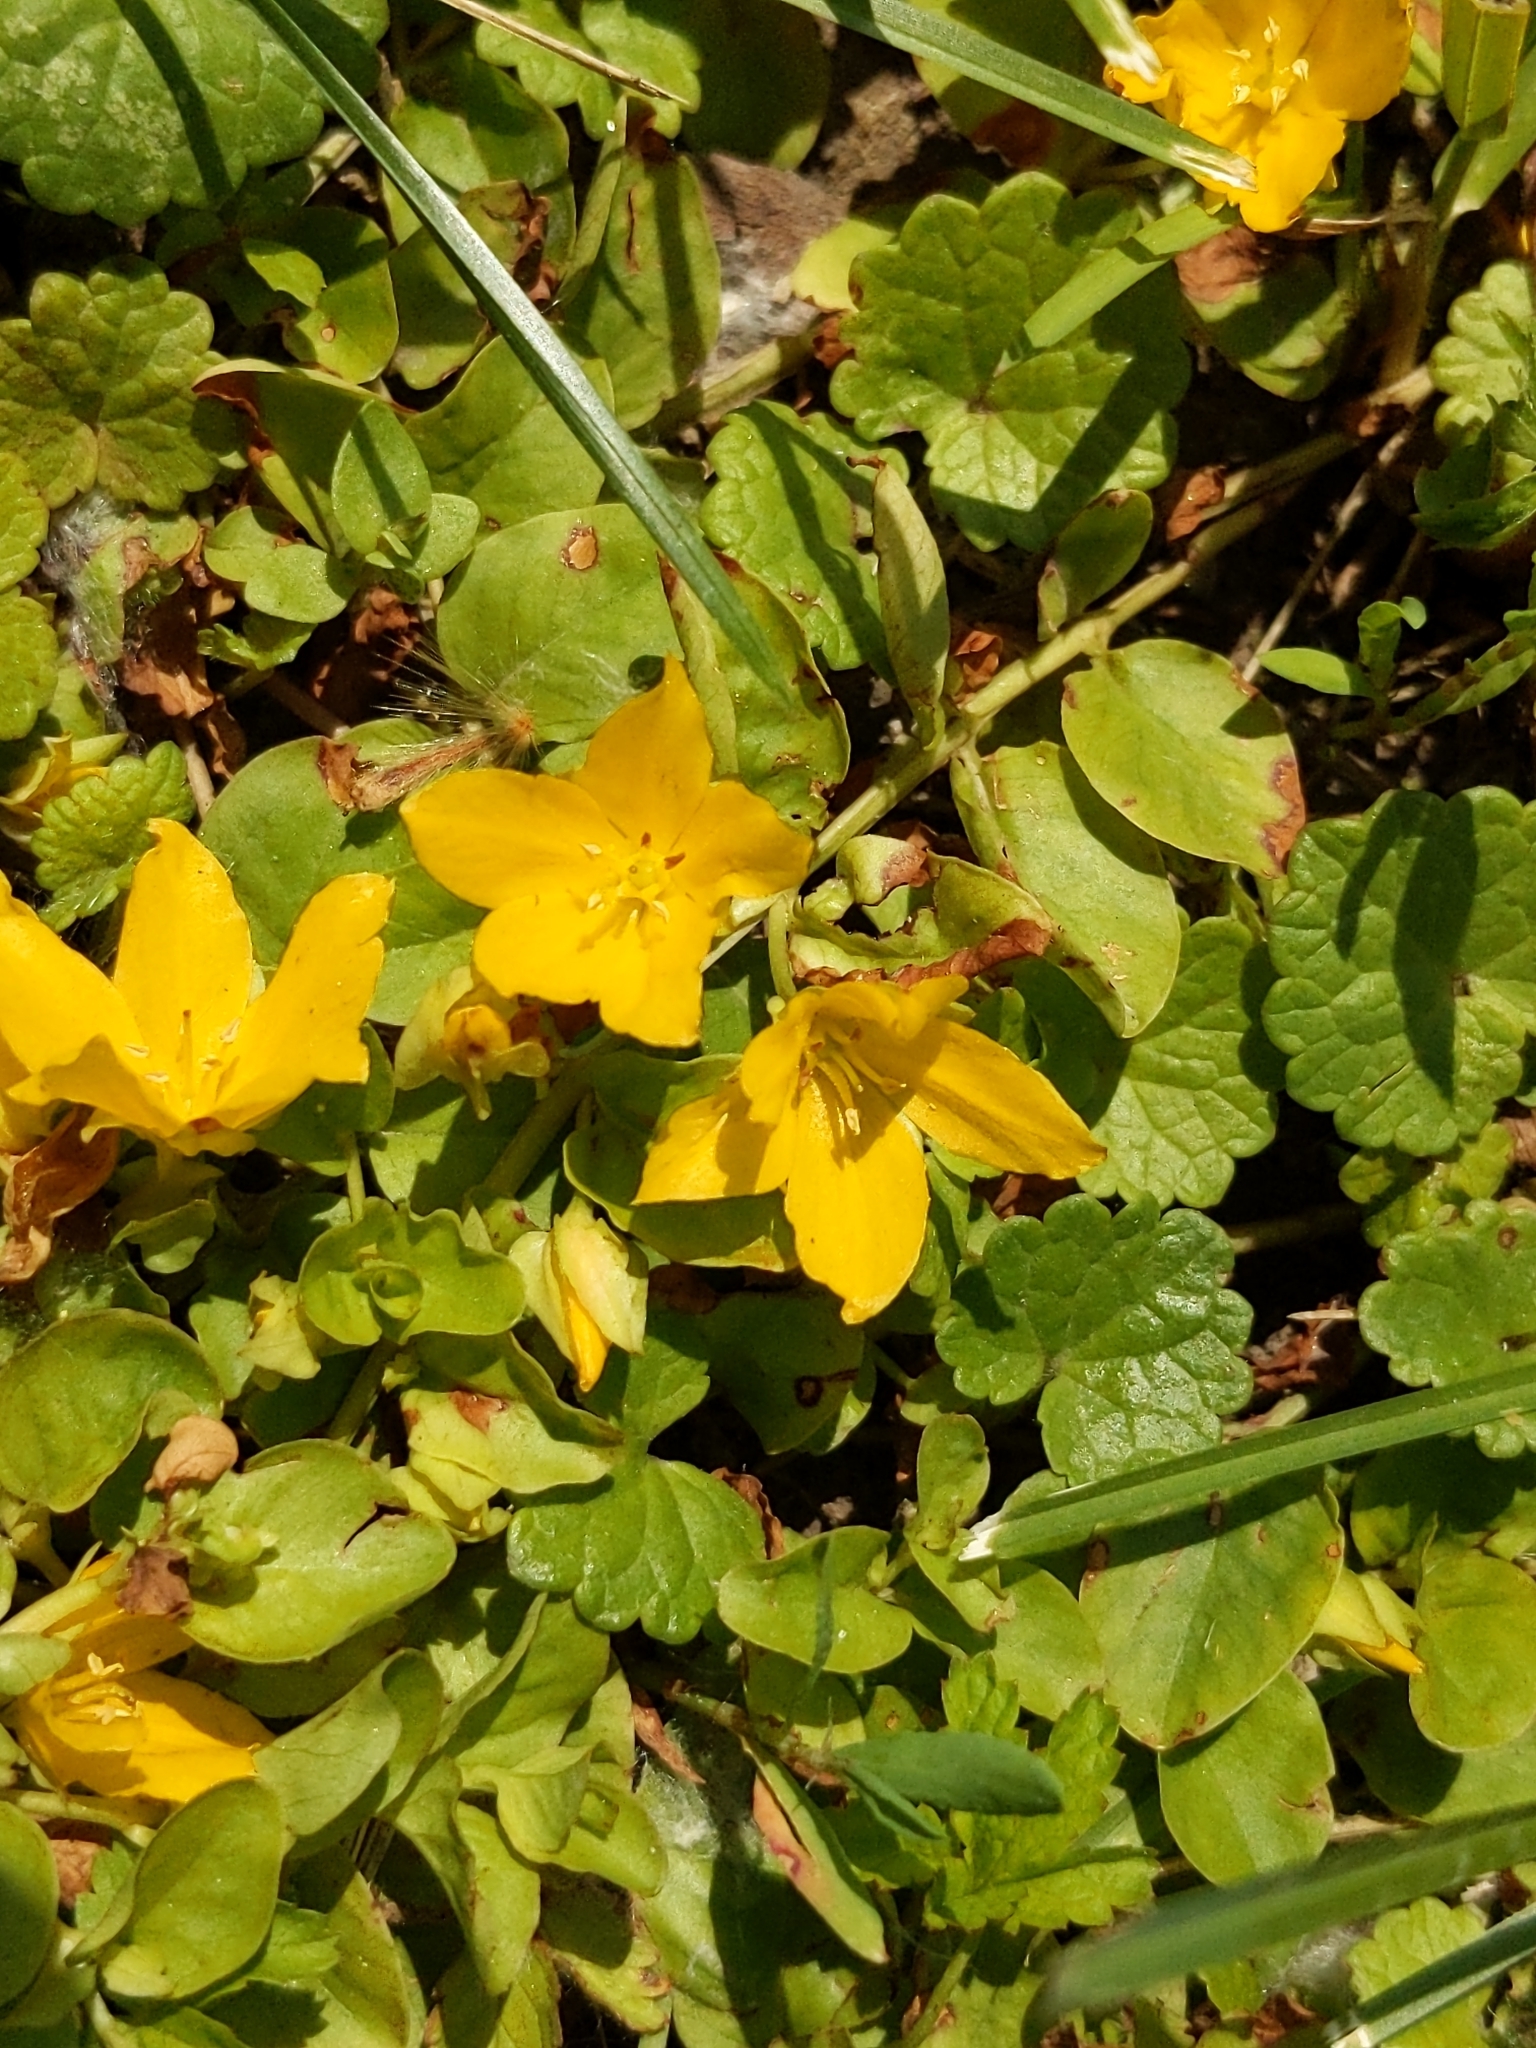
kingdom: Plantae
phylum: Tracheophyta
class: Magnoliopsida
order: Ericales
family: Primulaceae
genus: Lysimachia
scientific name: Lysimachia nummularia
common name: Moneywort
